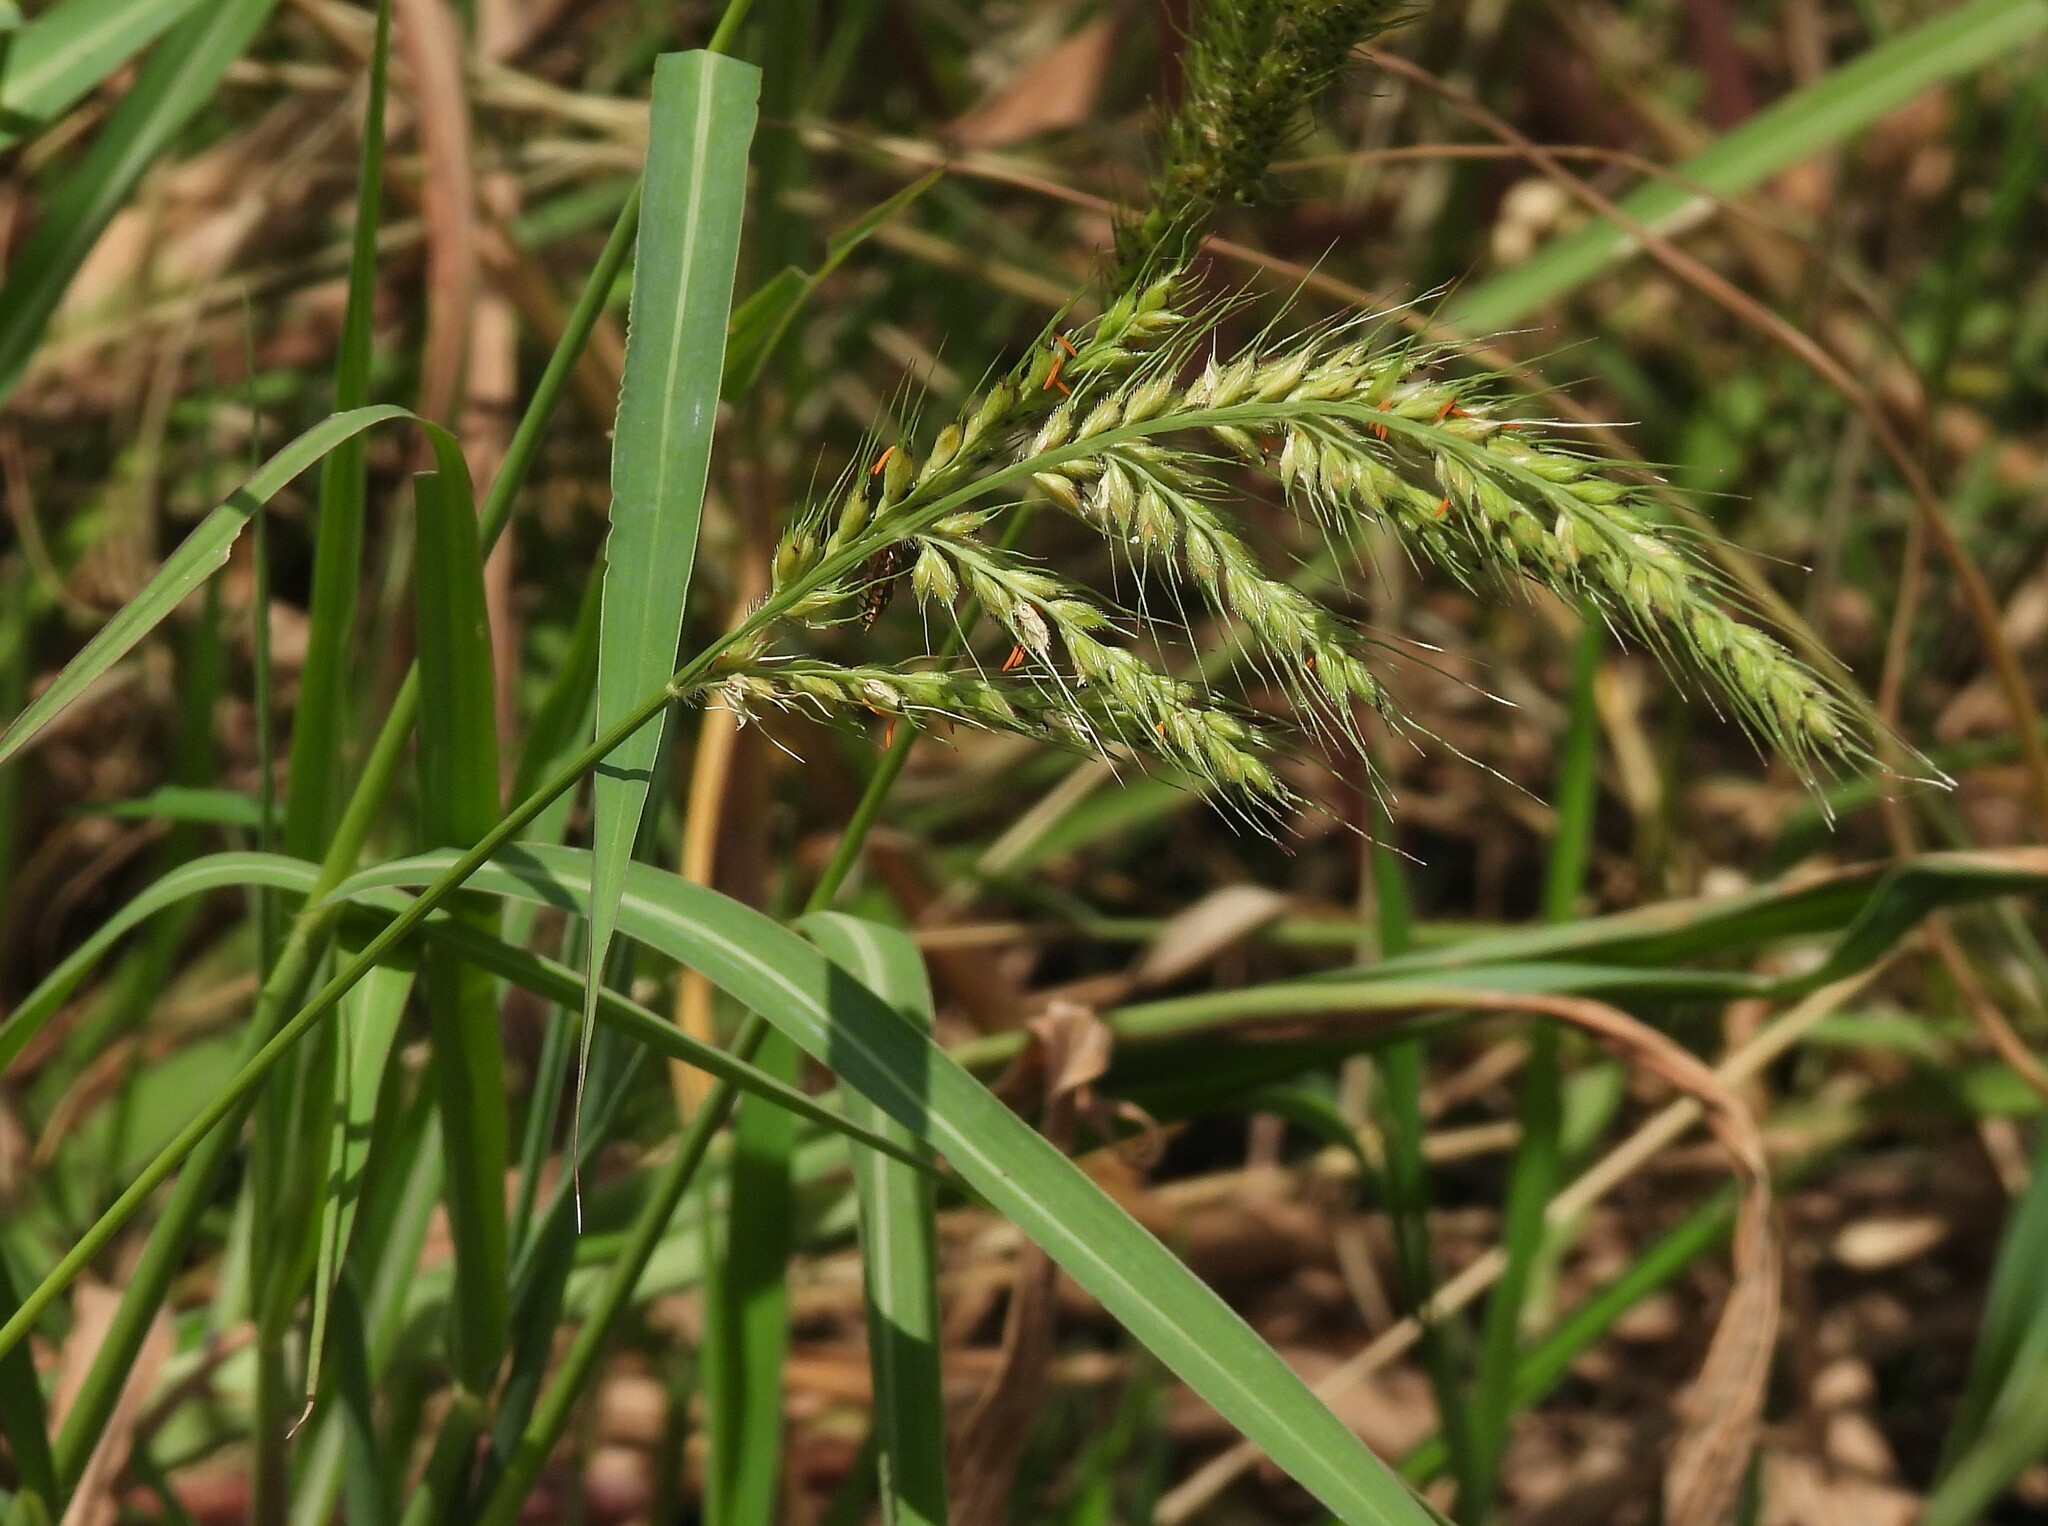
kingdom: Plantae
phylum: Tracheophyta
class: Liliopsida
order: Poales
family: Poaceae
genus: Echinochloa
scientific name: Echinochloa polystachya
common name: Creeping river grass
